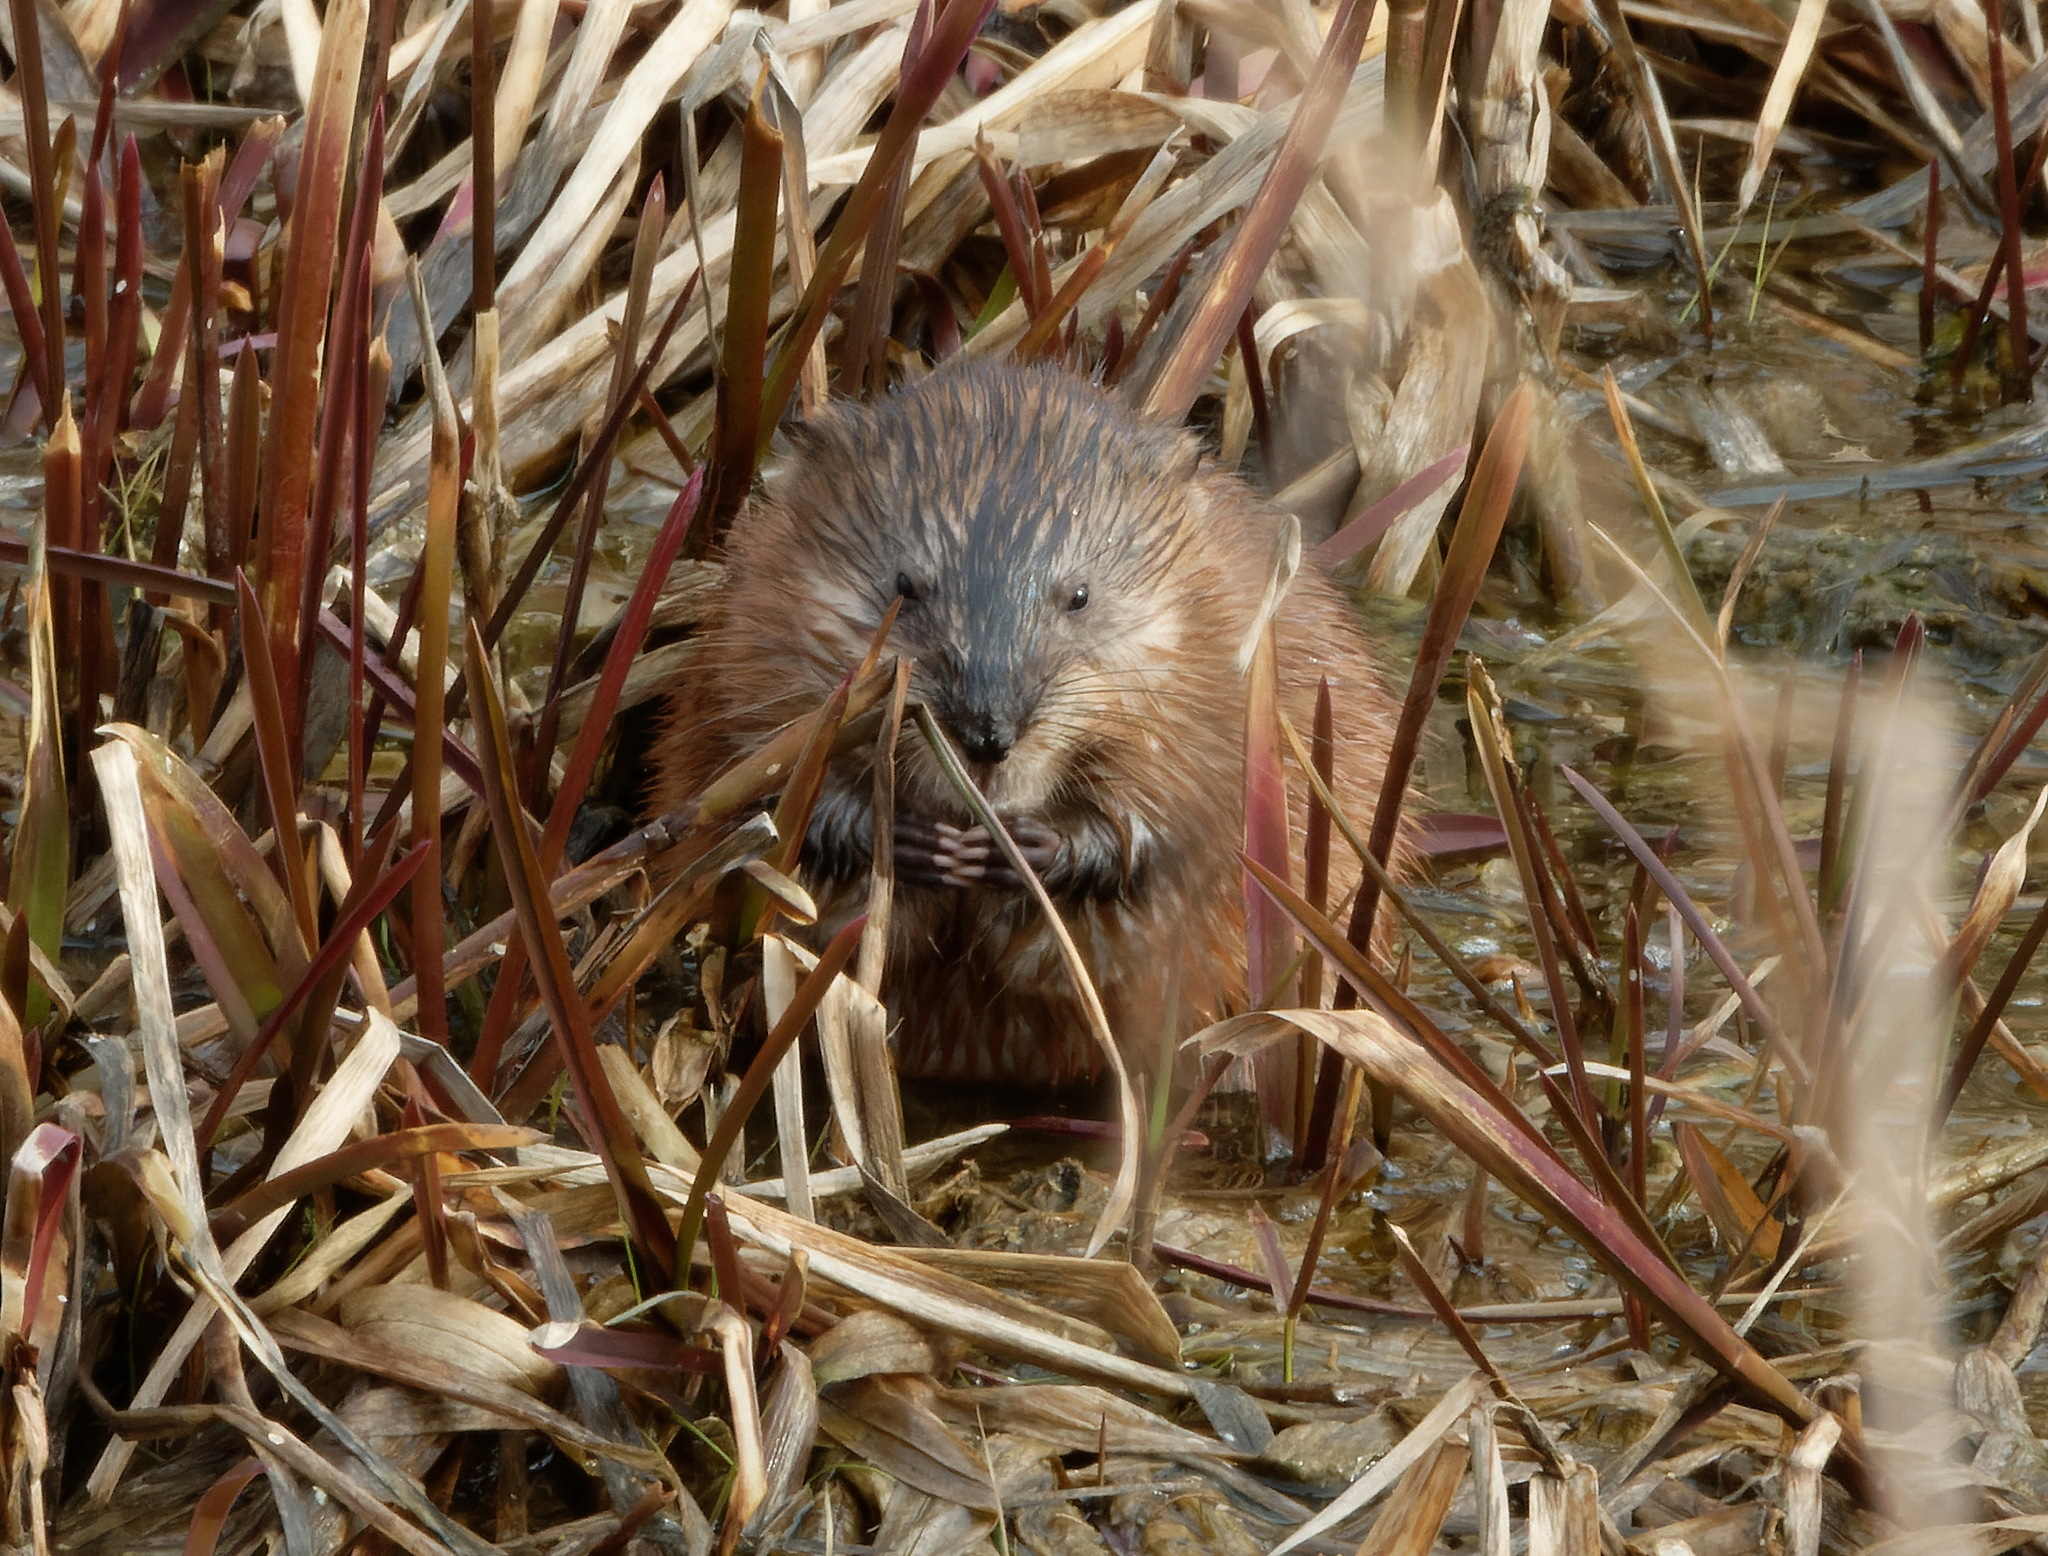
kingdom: Animalia
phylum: Chordata
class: Mammalia
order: Rodentia
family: Cricetidae
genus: Ondatra
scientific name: Ondatra zibethicus
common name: Muskrat
